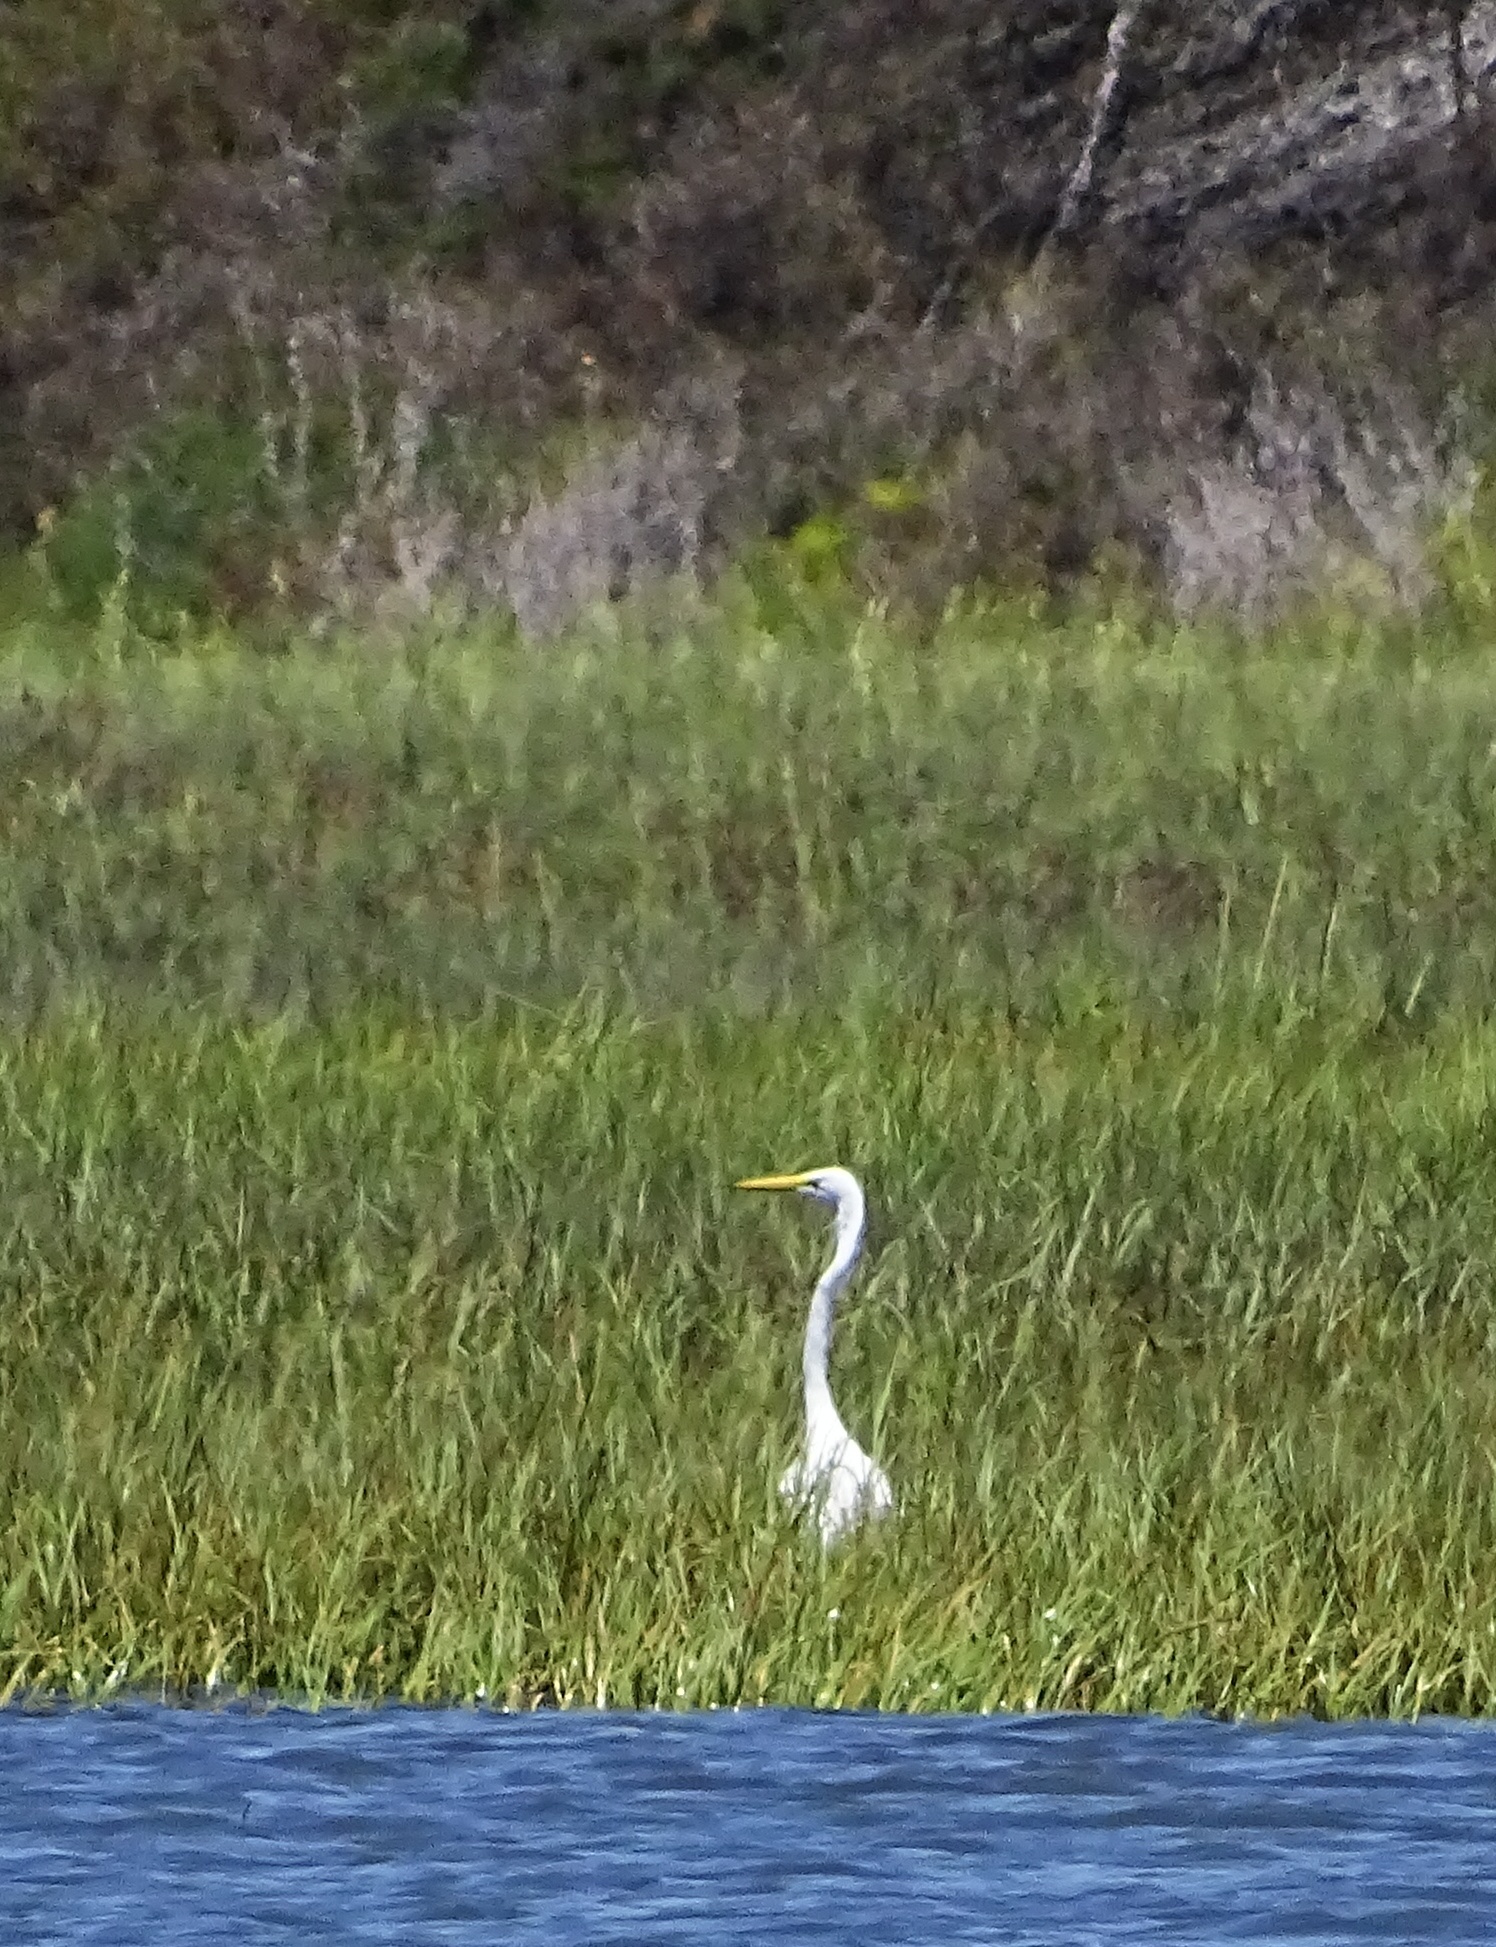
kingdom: Animalia
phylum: Chordata
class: Aves
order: Pelecaniformes
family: Ardeidae
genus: Ardea
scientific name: Ardea alba
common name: Great egret
